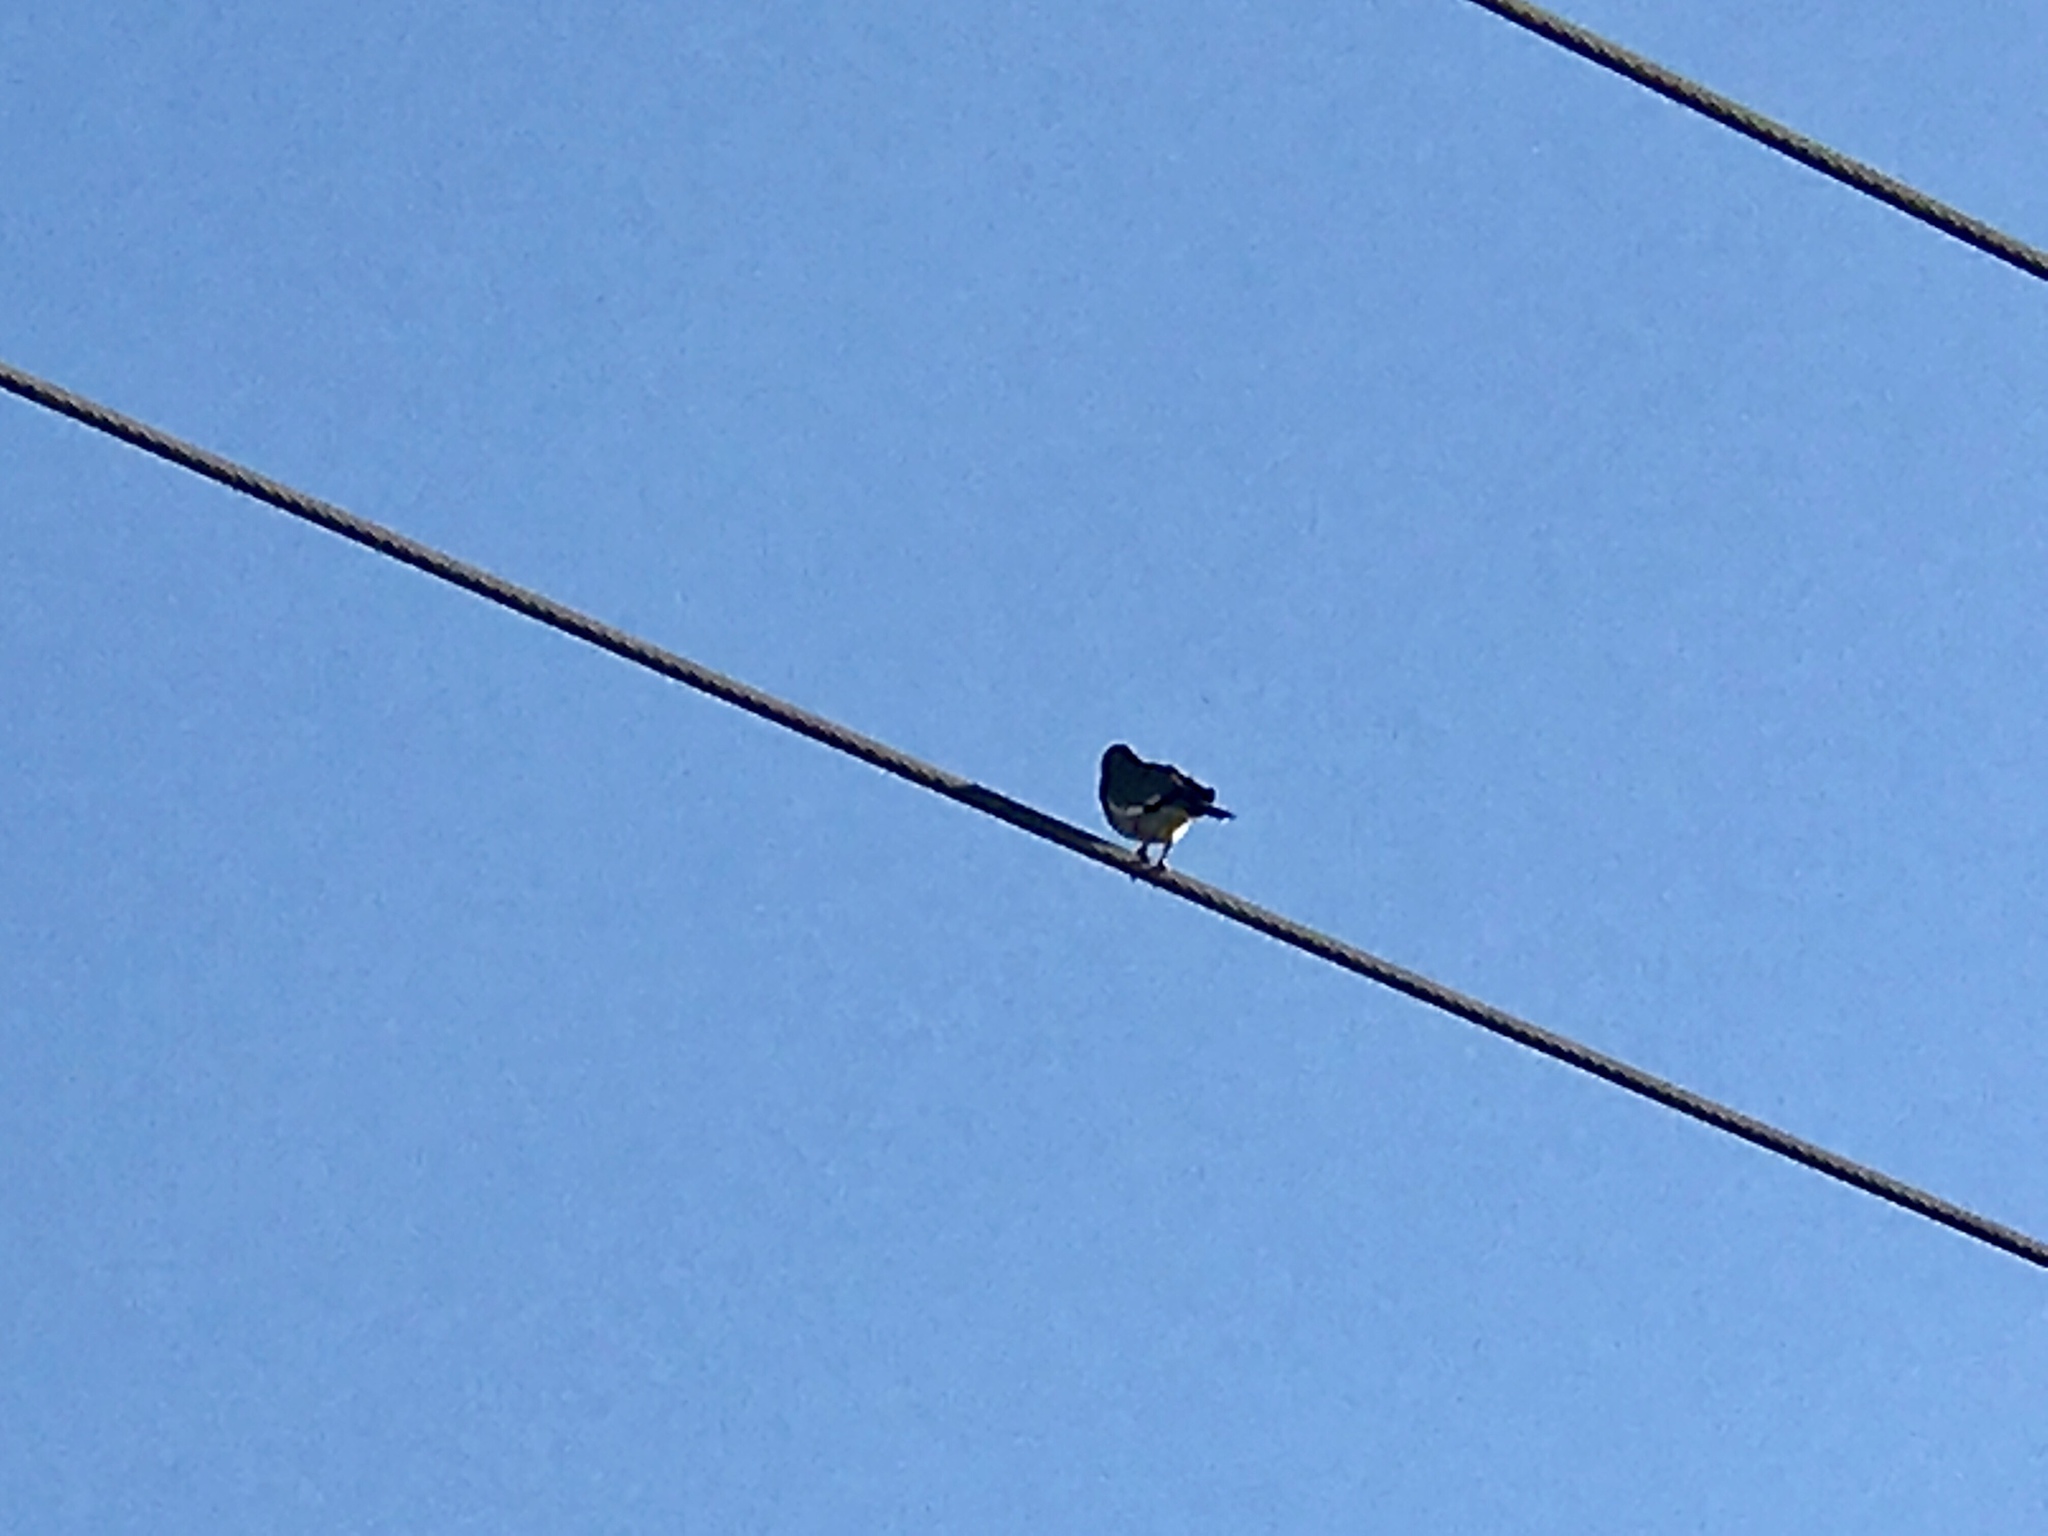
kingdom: Animalia
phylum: Chordata
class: Aves
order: Columbiformes
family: Columbidae
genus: Zenaida
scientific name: Zenaida asiatica
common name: White-winged dove
